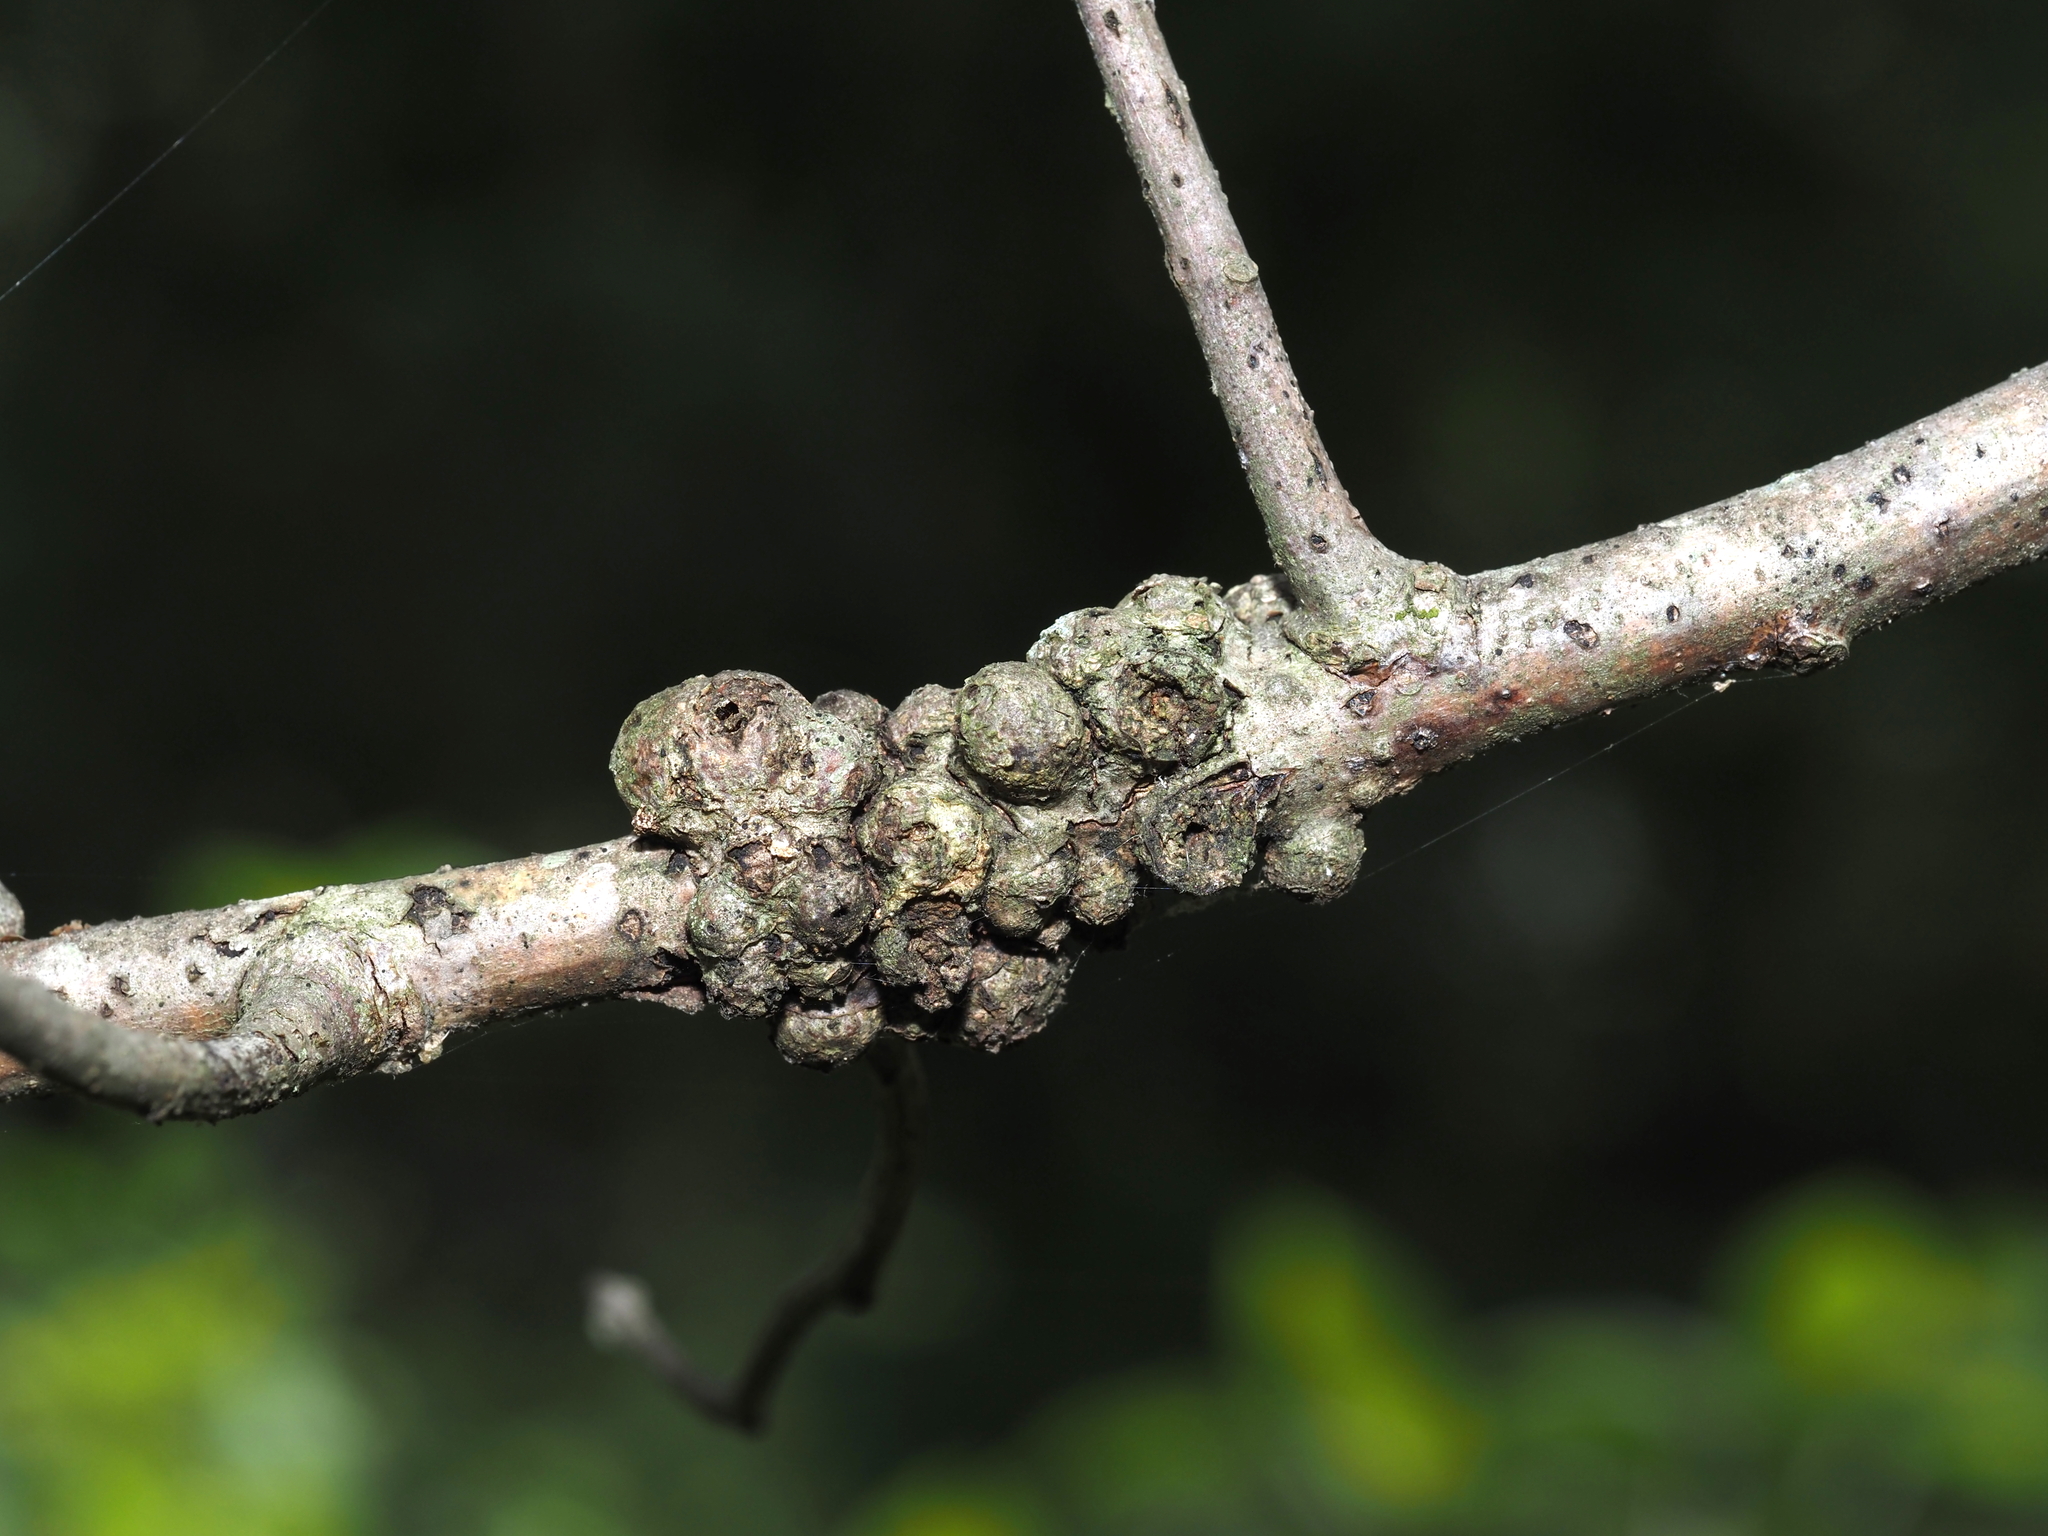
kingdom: Animalia
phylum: Arthropoda
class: Insecta
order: Hymenoptera
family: Cynipidae
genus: Synergus
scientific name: Synergus lignicola
